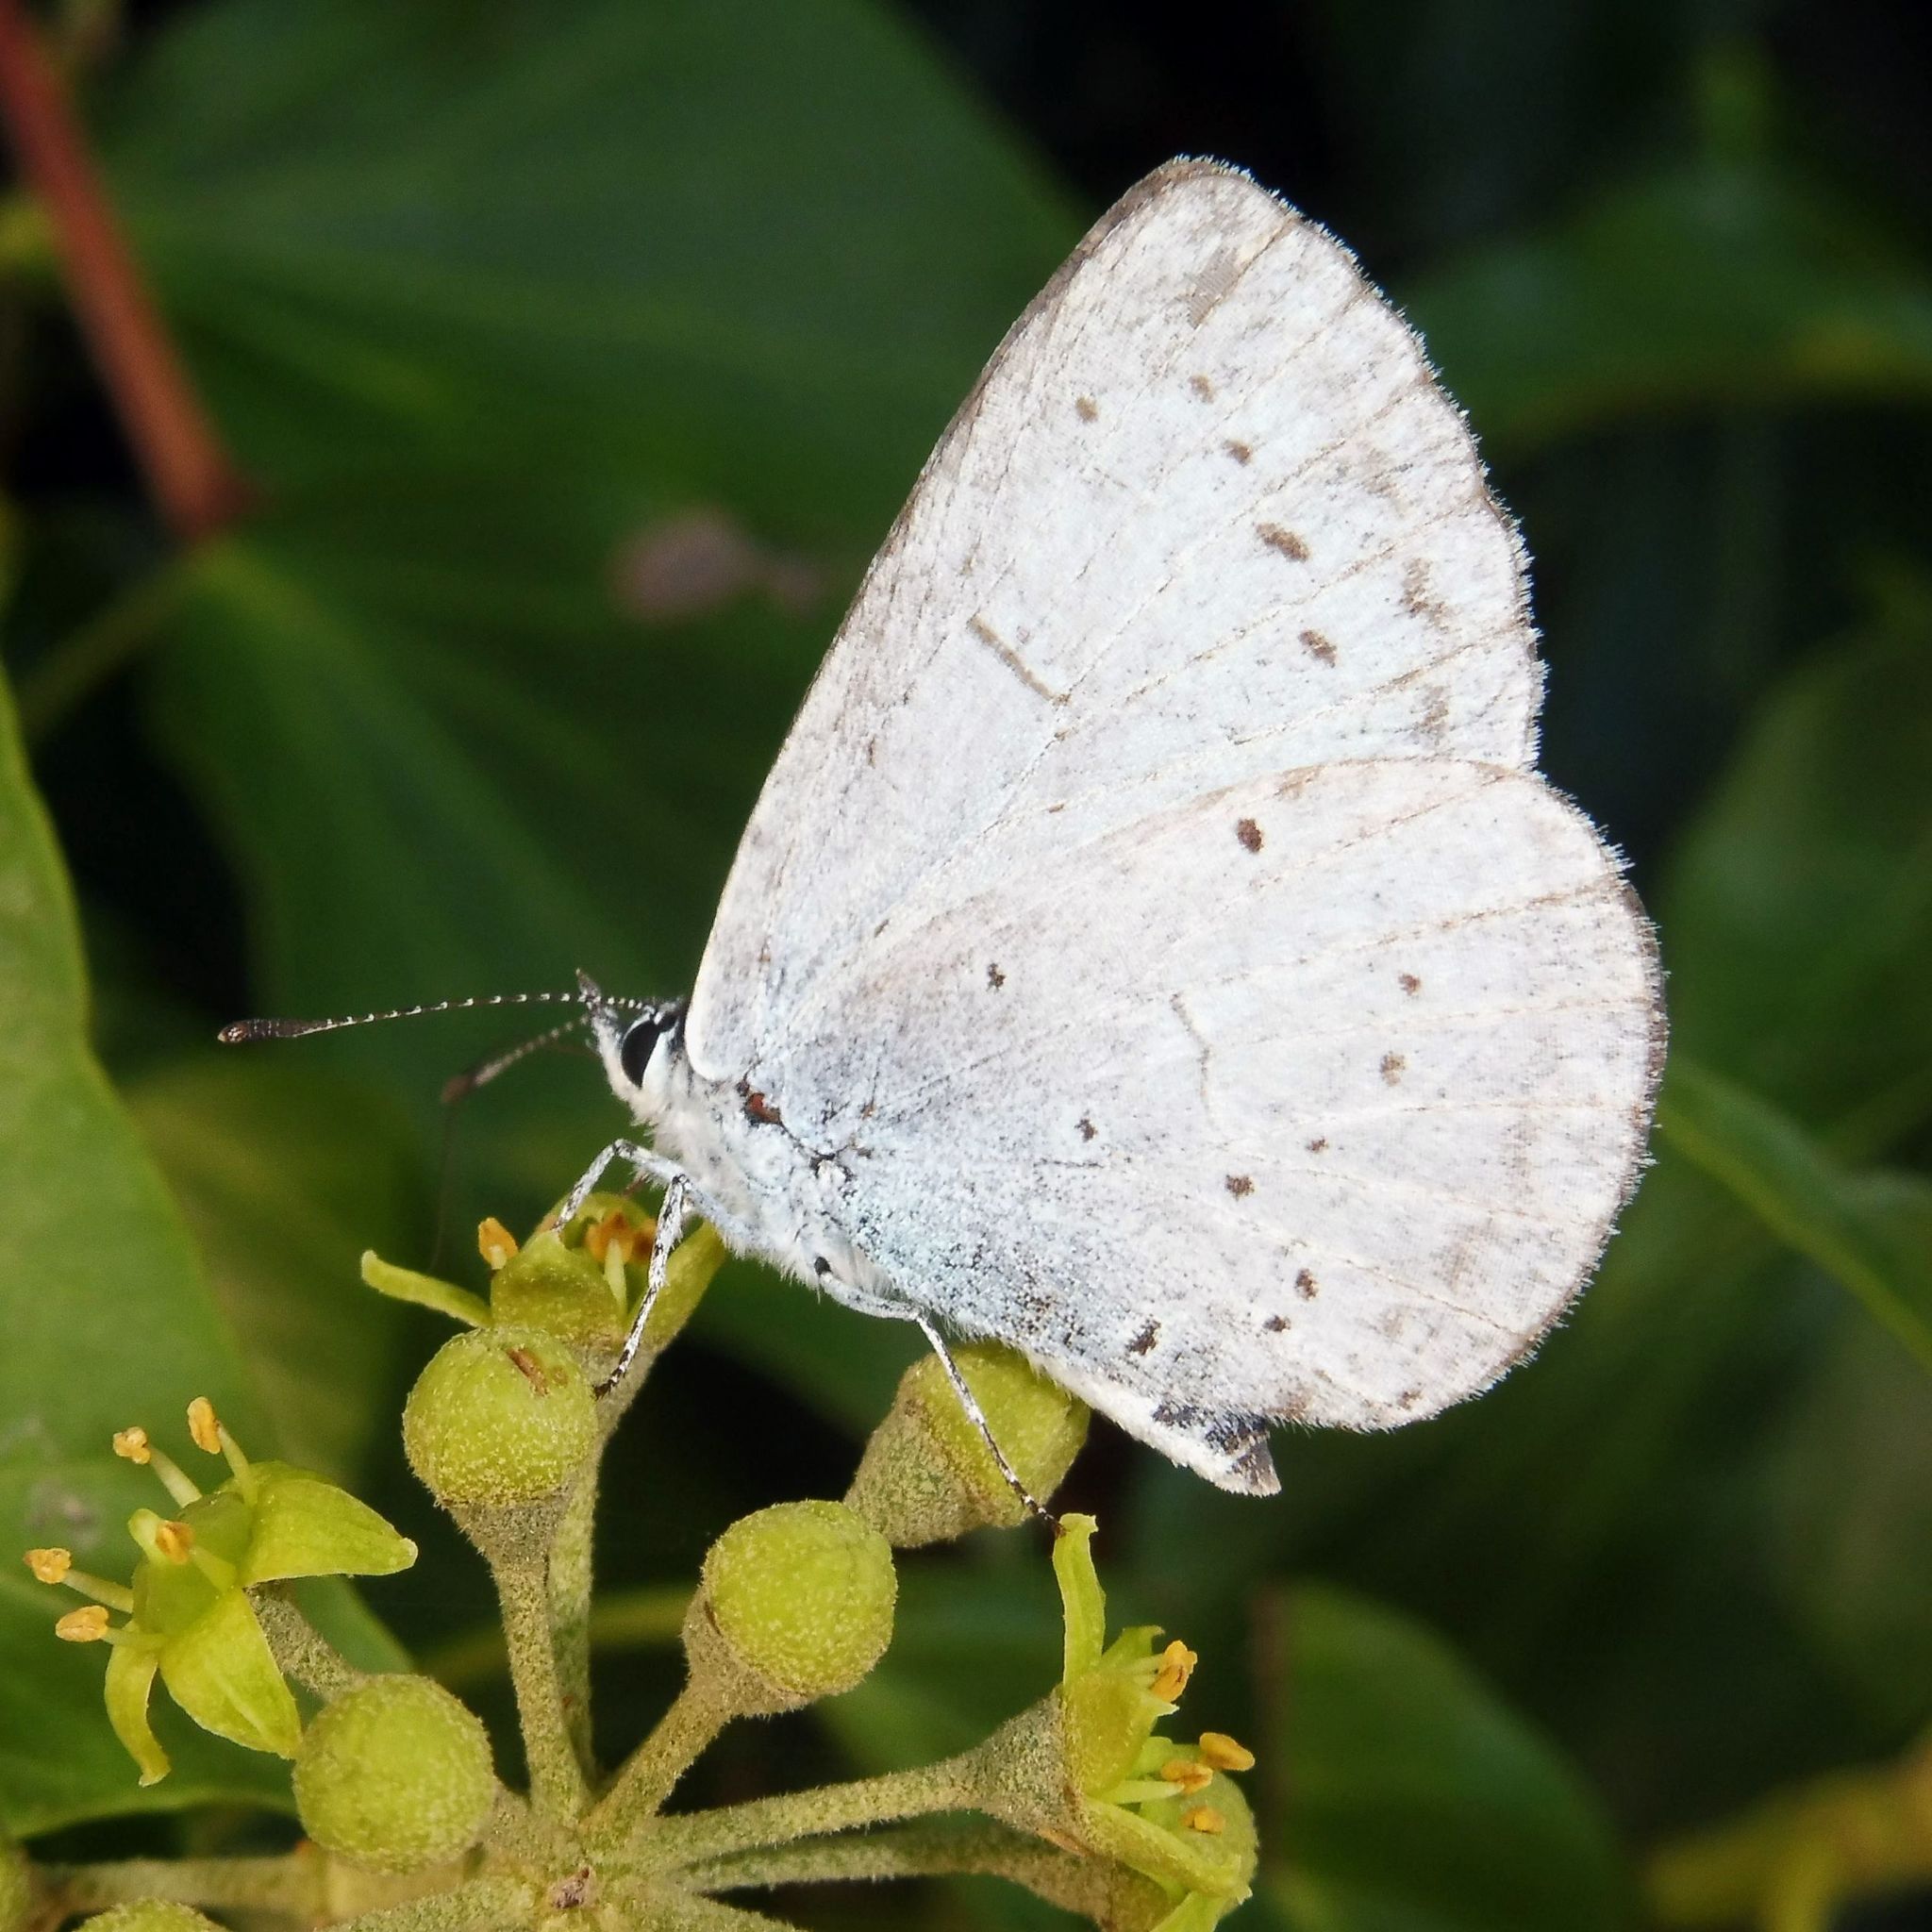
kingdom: Animalia
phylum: Arthropoda
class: Insecta
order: Lepidoptera
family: Lycaenidae
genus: Celastrina
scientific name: Celastrina argiolus
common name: Holly blue
